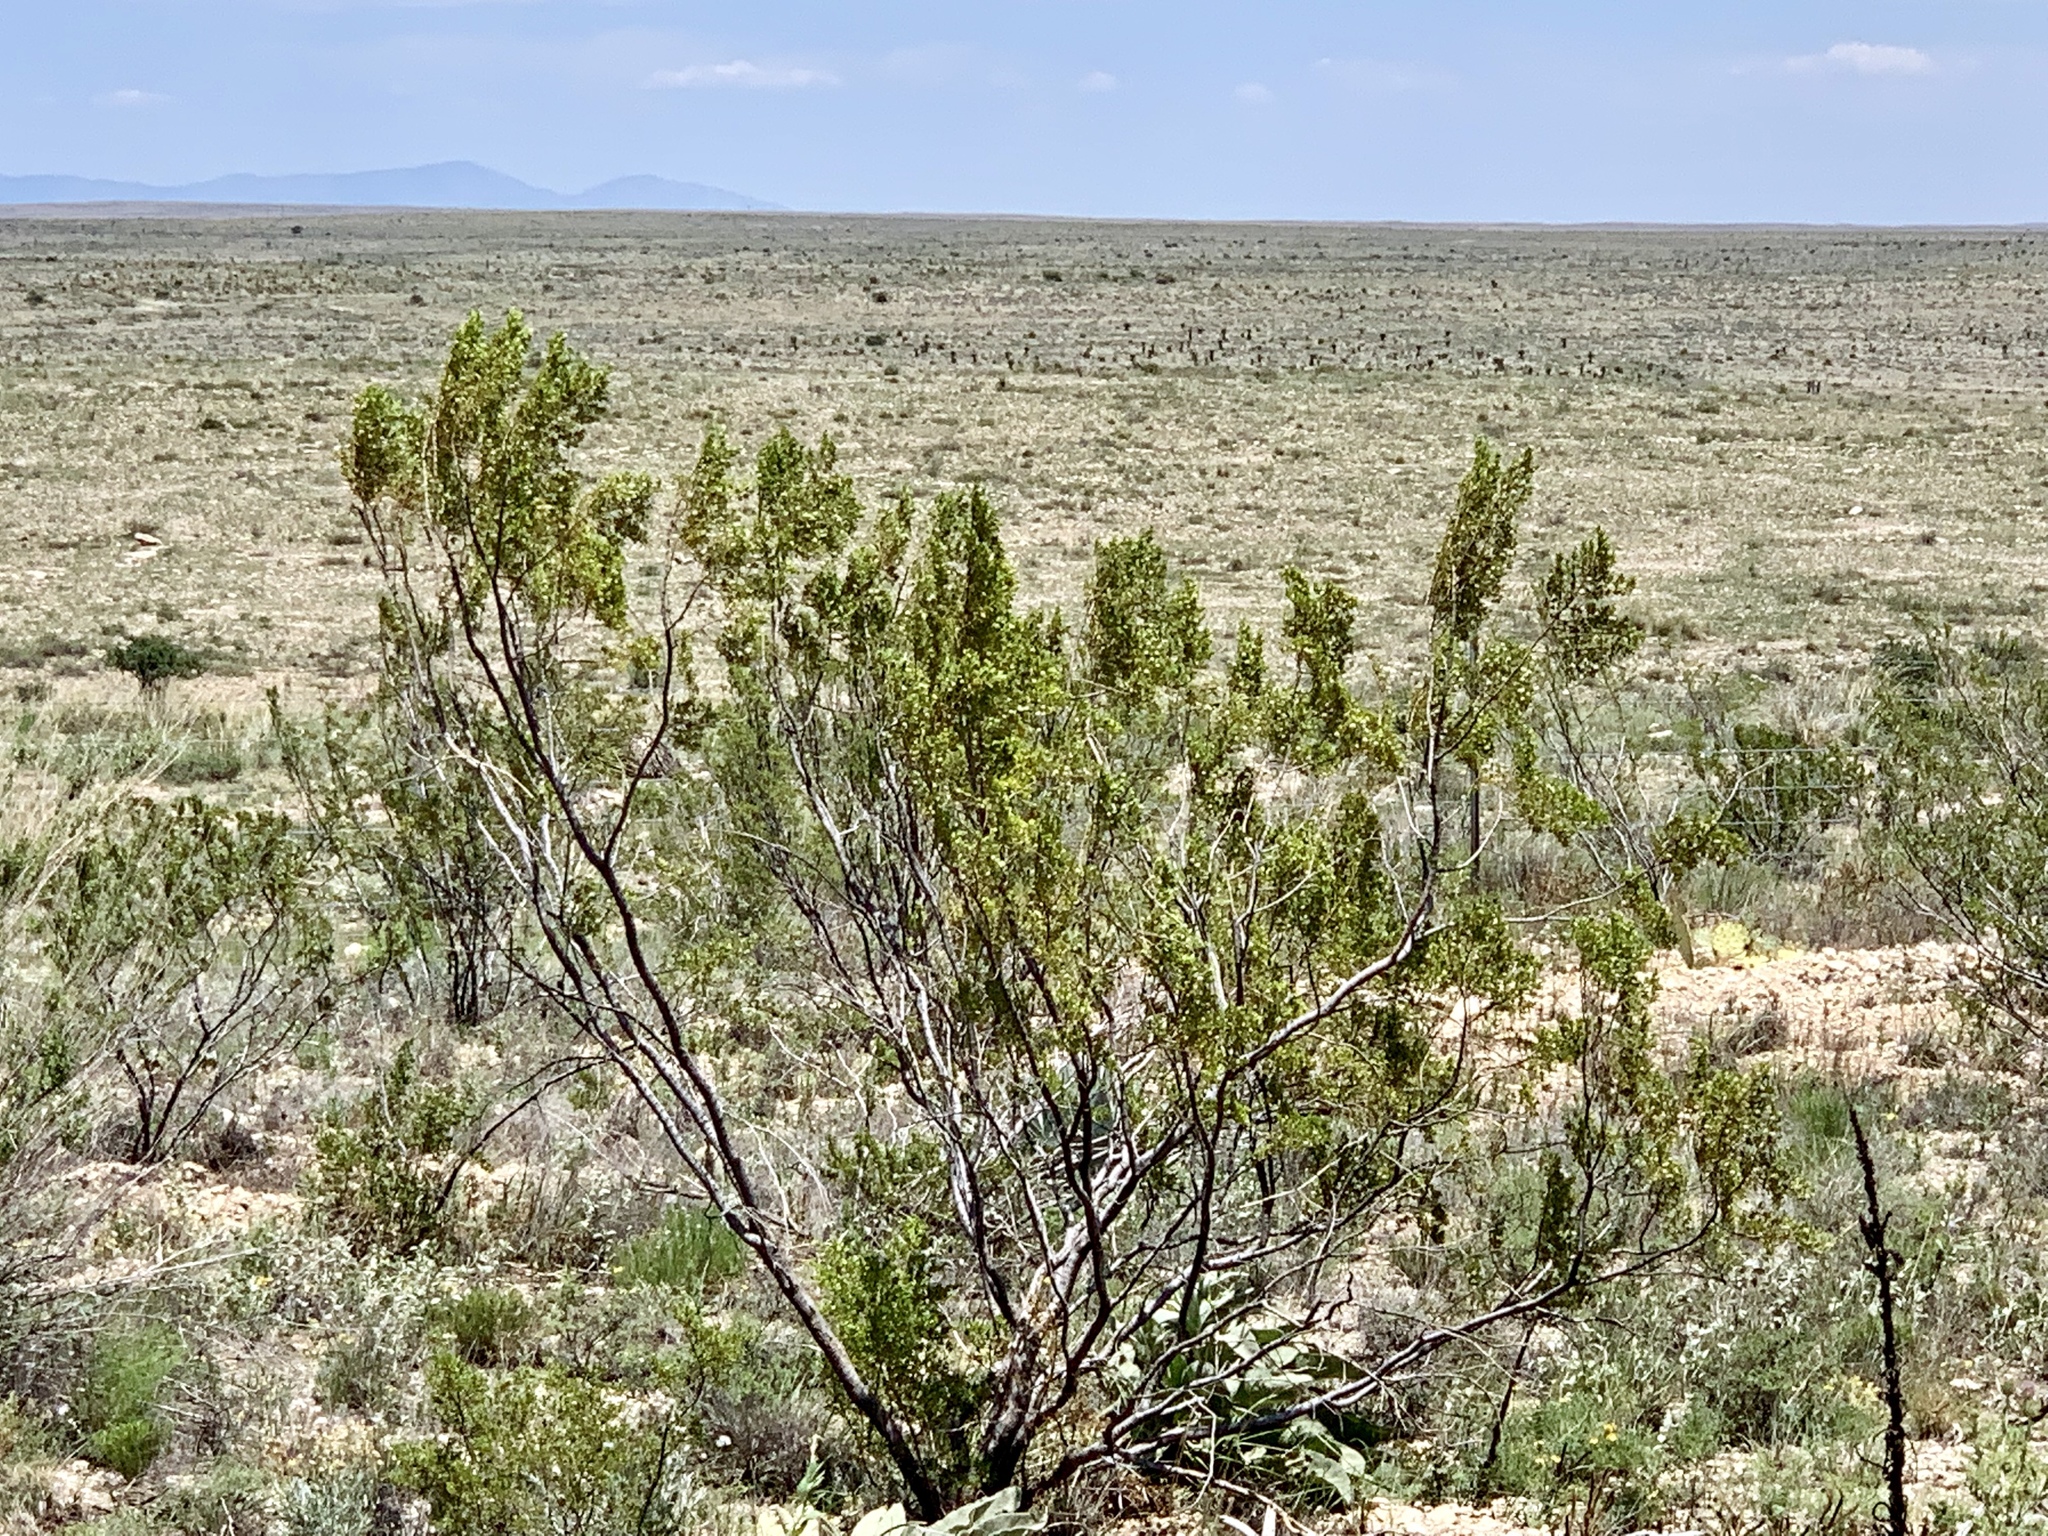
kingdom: Plantae
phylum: Tracheophyta
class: Magnoliopsida
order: Zygophyllales
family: Zygophyllaceae
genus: Larrea
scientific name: Larrea tridentata
